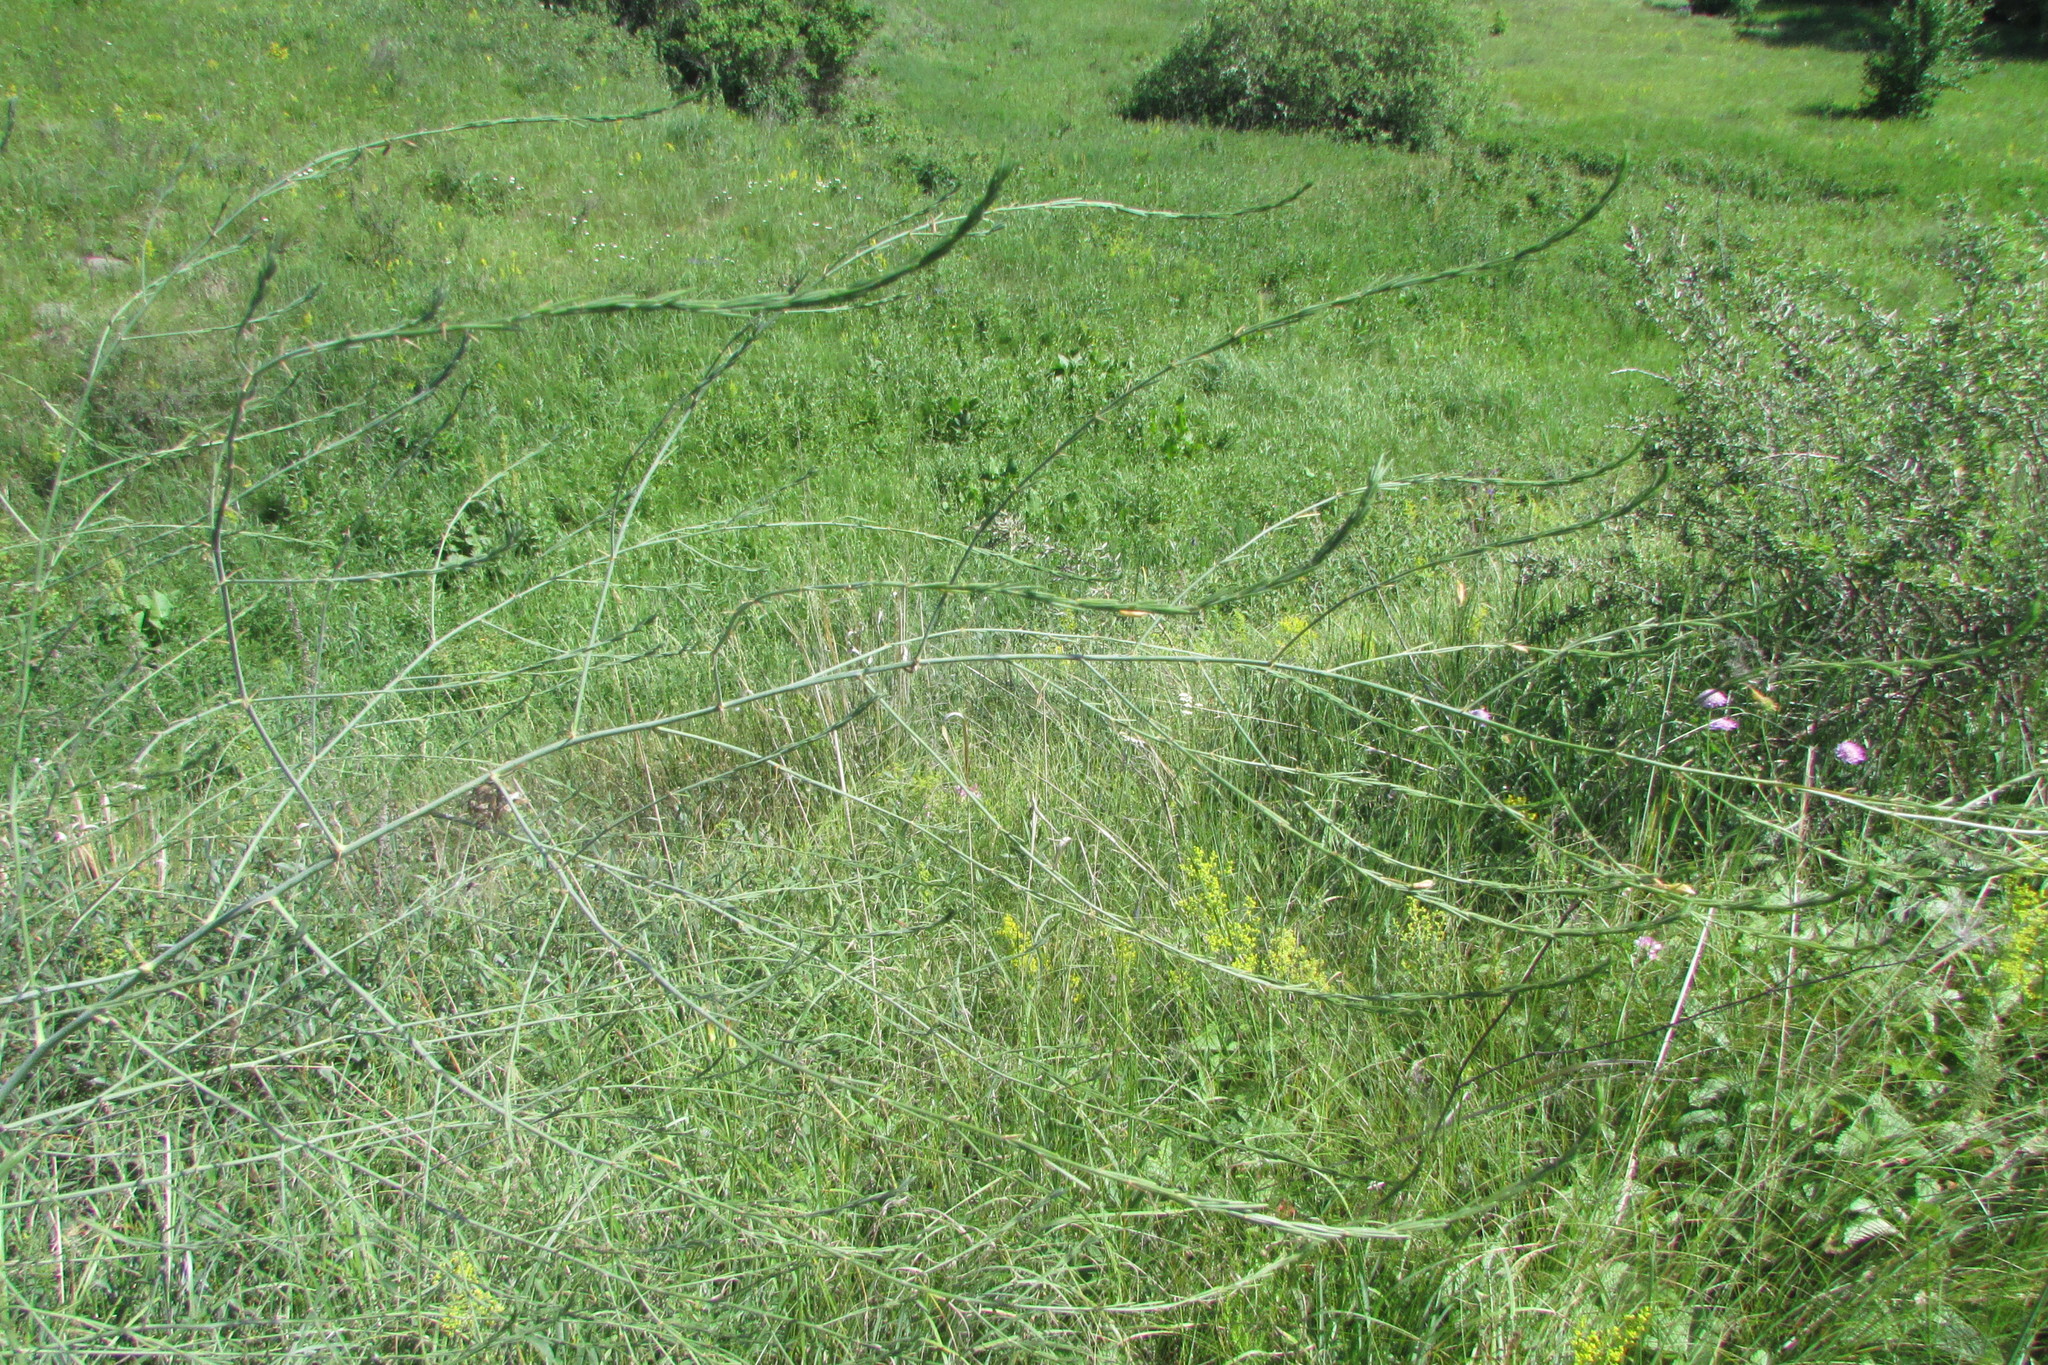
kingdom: Plantae
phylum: Tracheophyta
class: Liliopsida
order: Asparagales
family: Asparagaceae
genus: Asparagus
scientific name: Asparagus officinalis
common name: Garden asparagus
